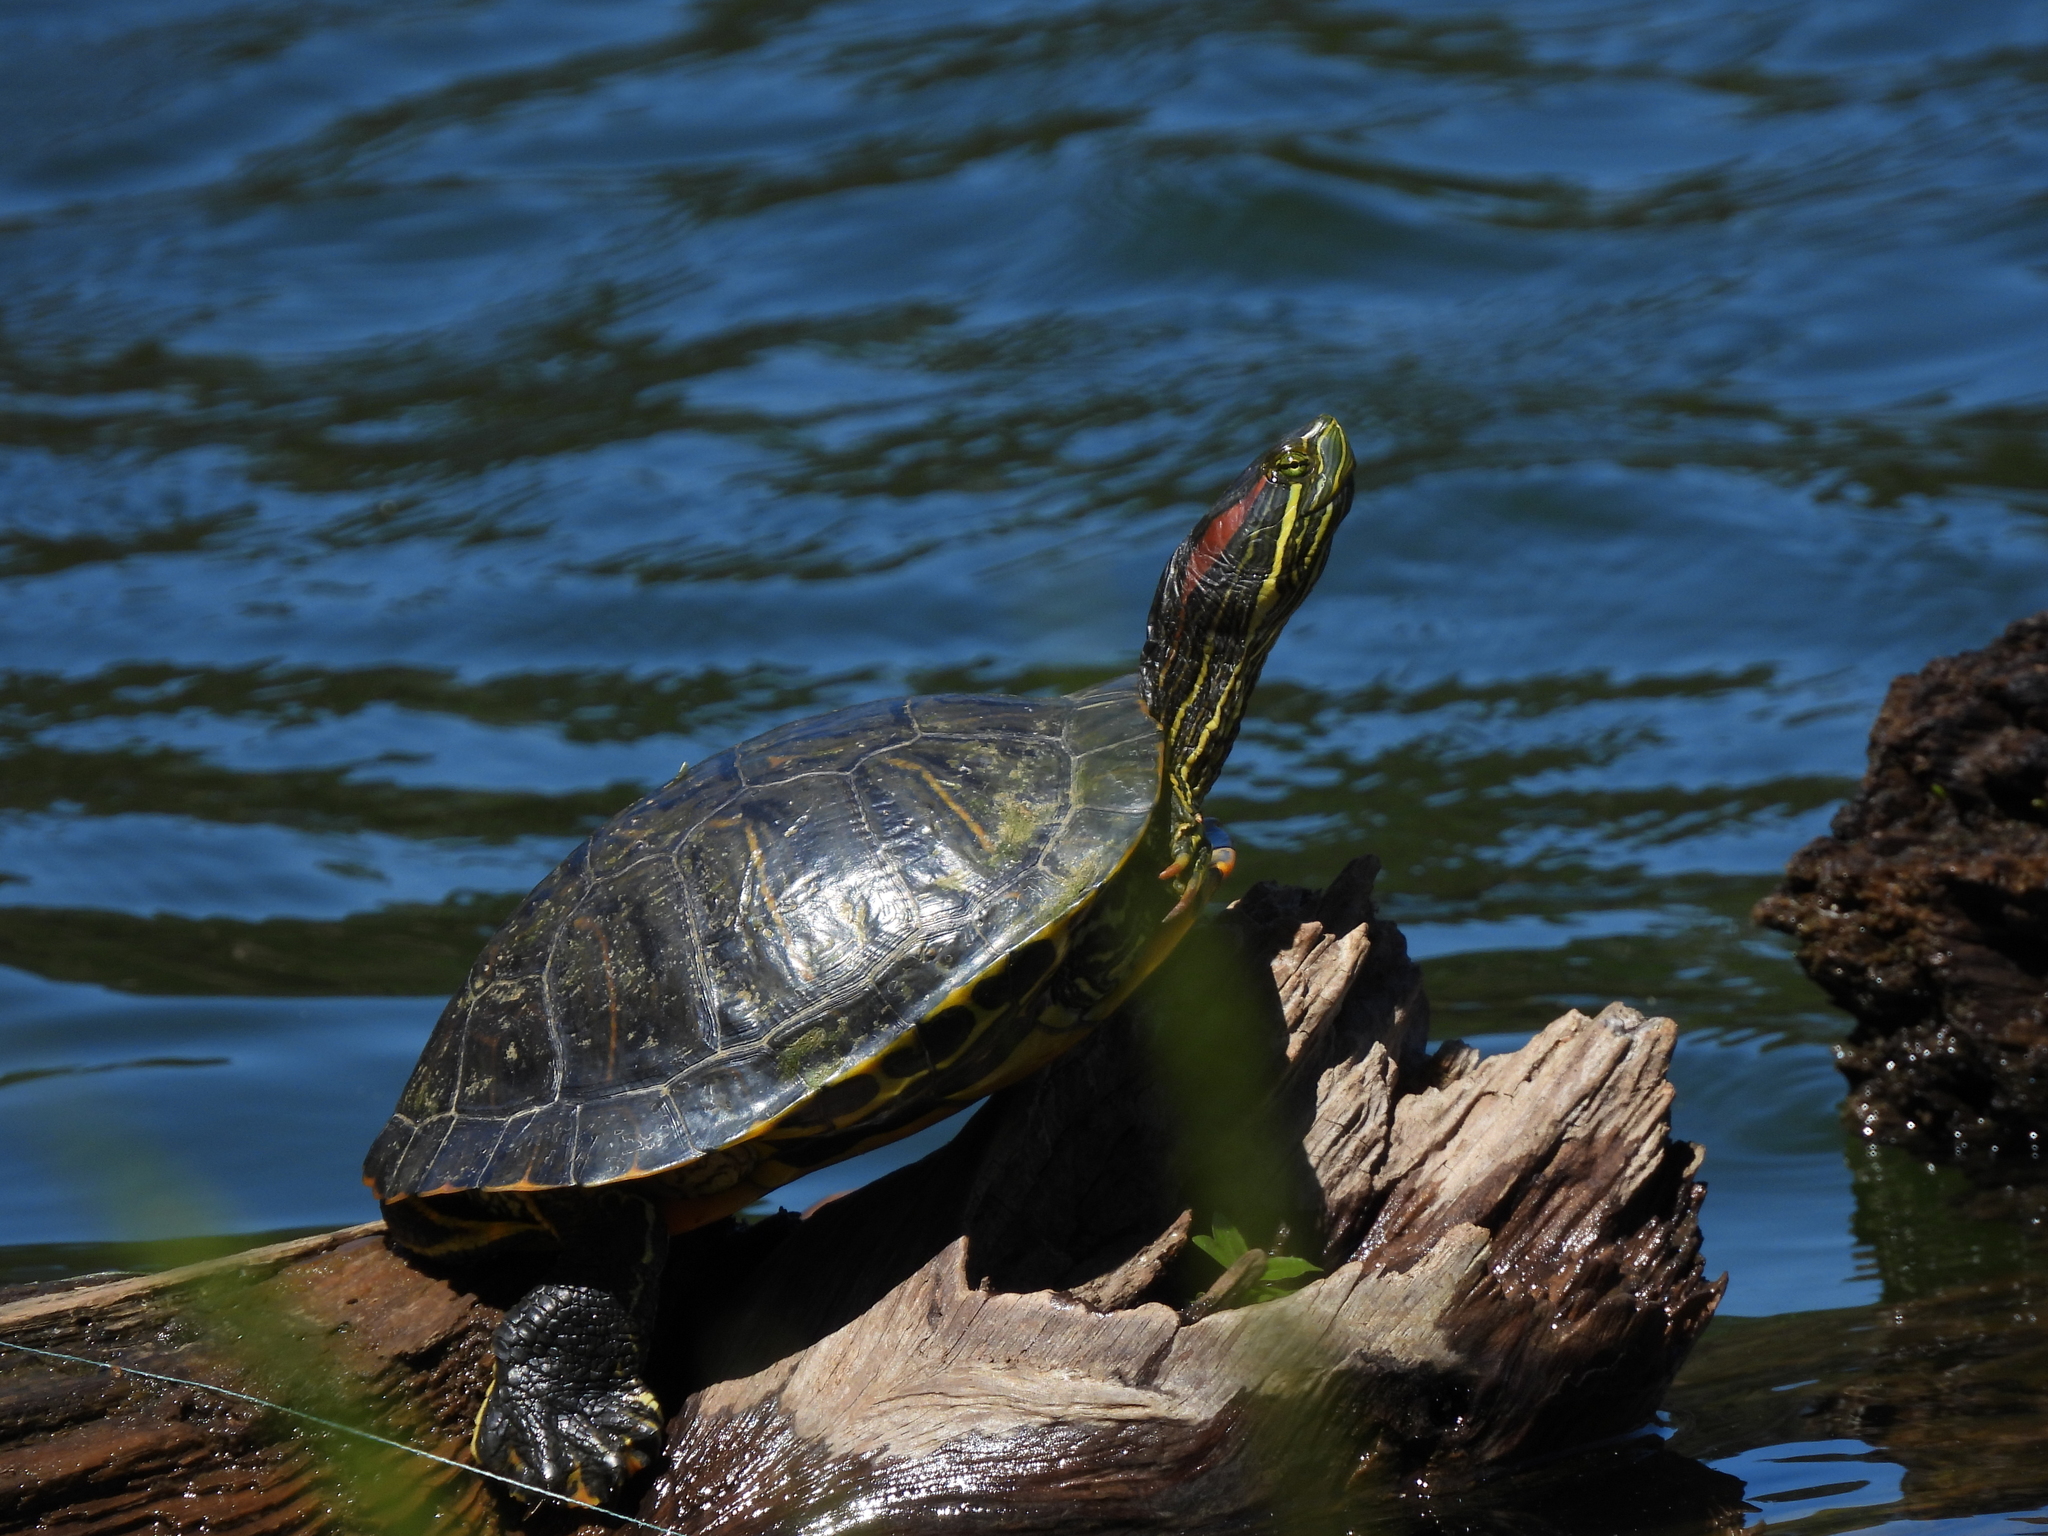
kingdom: Animalia
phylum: Chordata
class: Testudines
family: Emydidae
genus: Trachemys
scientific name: Trachemys scripta
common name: Slider
